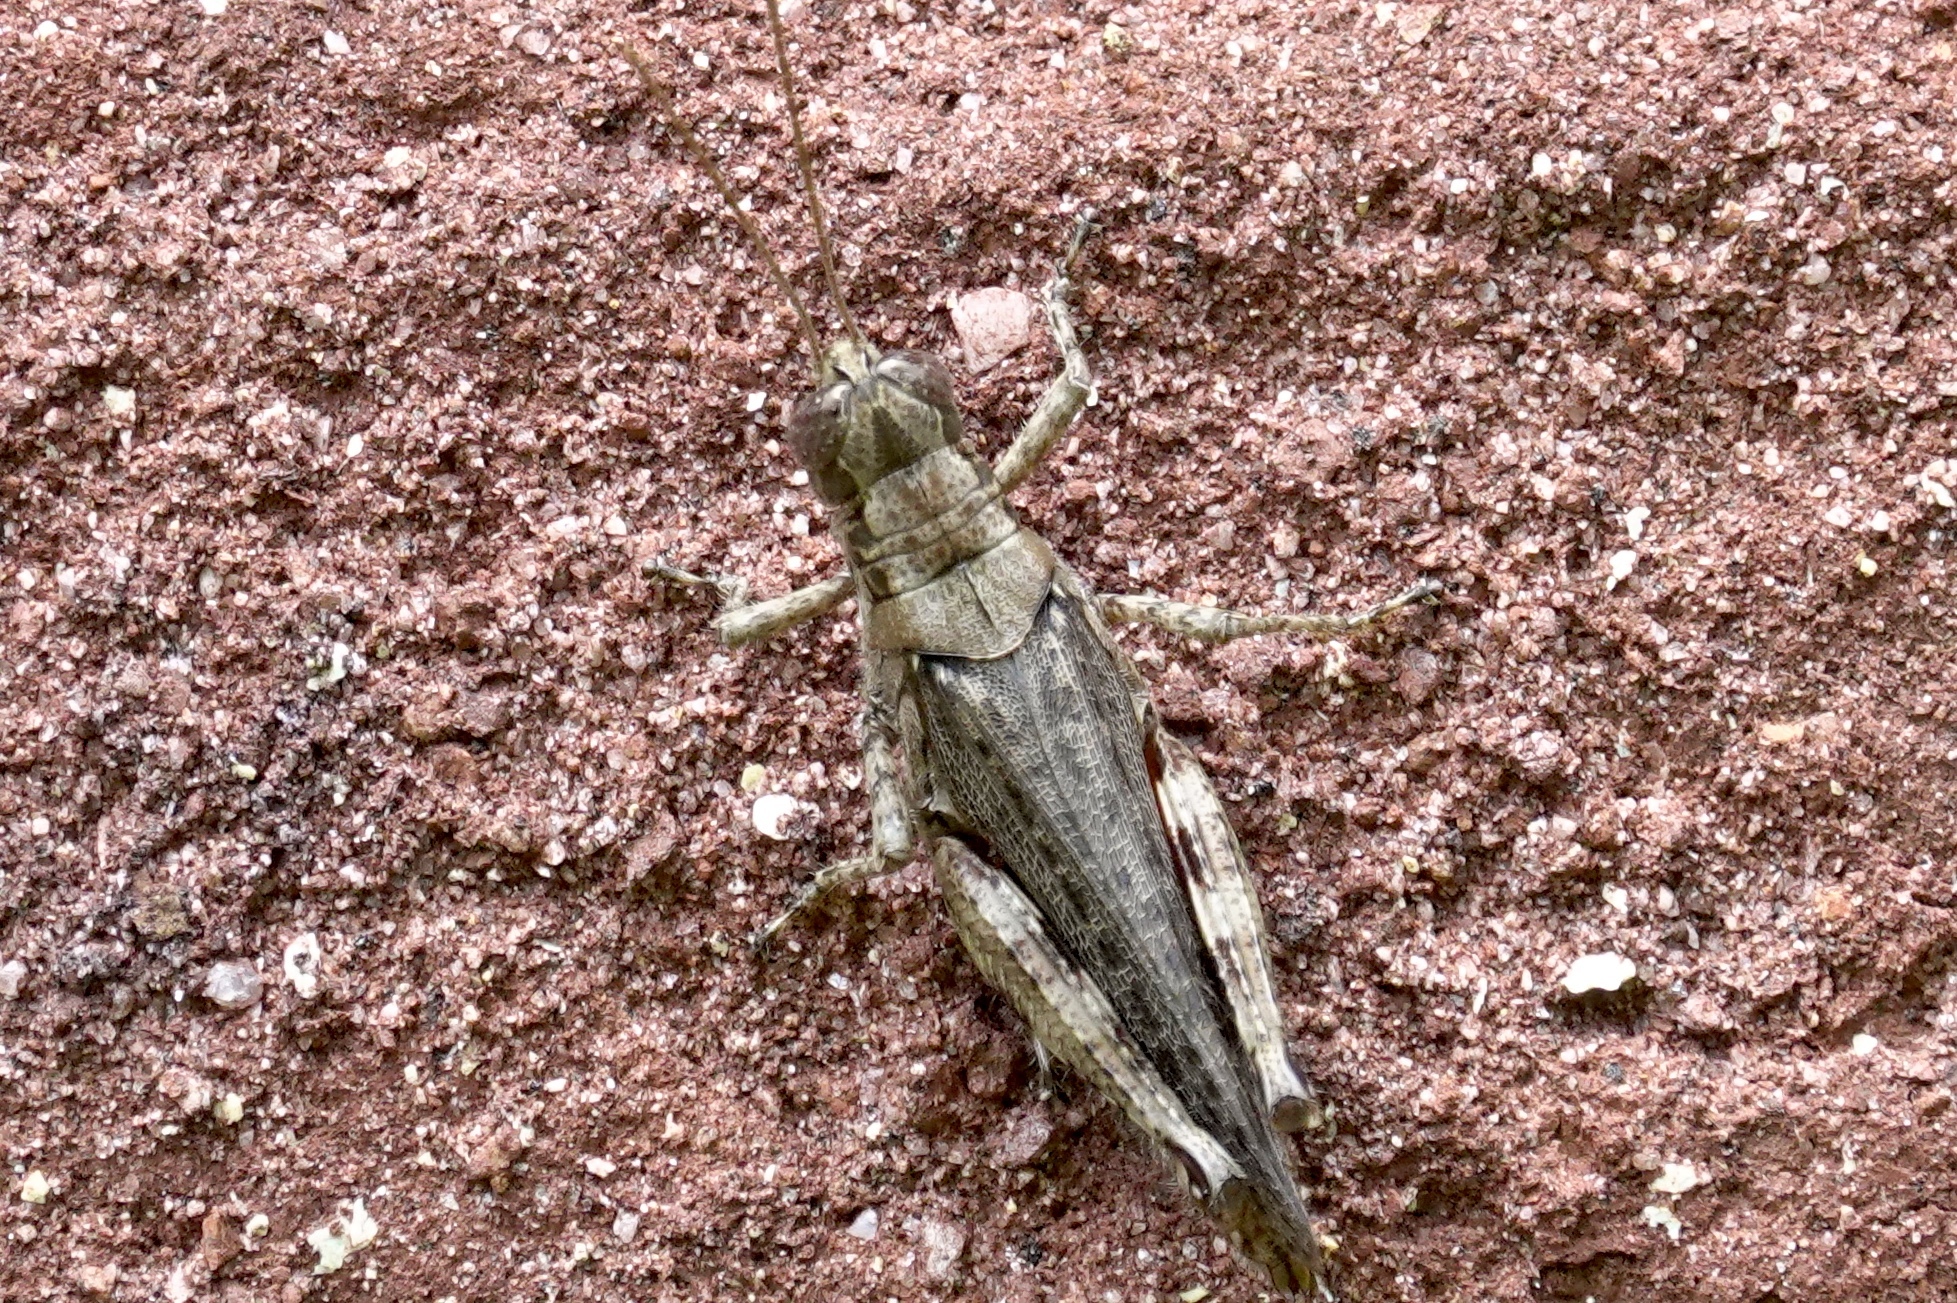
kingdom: Animalia
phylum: Arthropoda
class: Insecta
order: Orthoptera
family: Acrididae
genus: Melanoplus
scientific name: Melanoplus punctulatus
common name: Pine-tree spur-throat grasshopper
